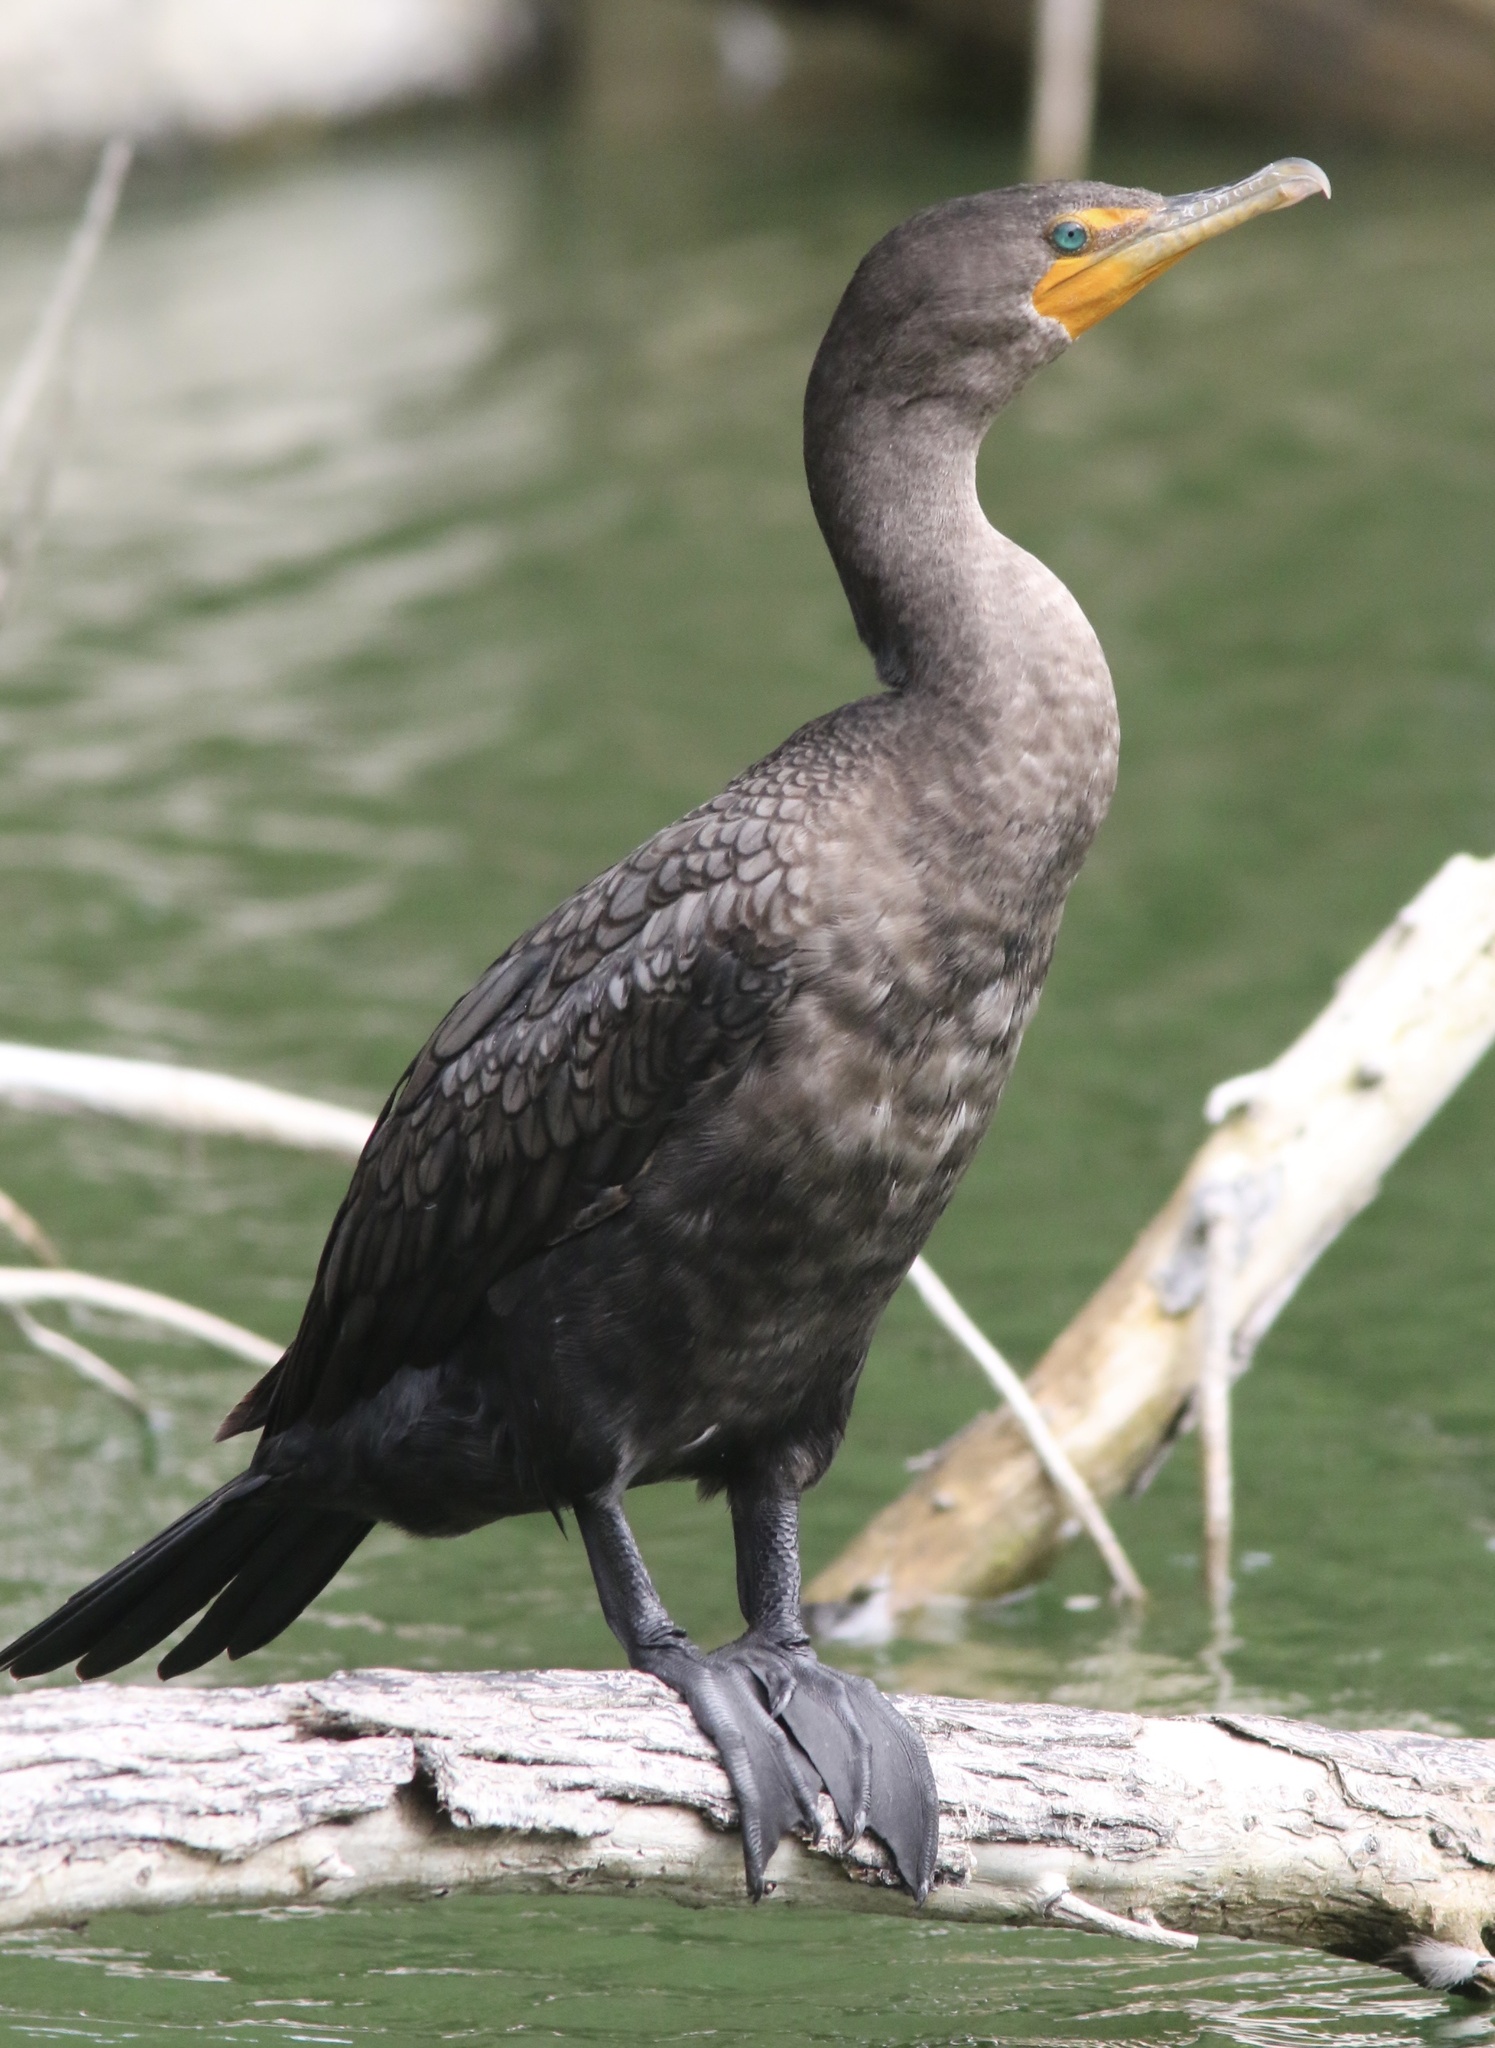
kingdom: Animalia
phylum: Chordata
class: Aves
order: Suliformes
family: Phalacrocoracidae
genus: Phalacrocorax
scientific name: Phalacrocorax auritus
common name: Double-crested cormorant
